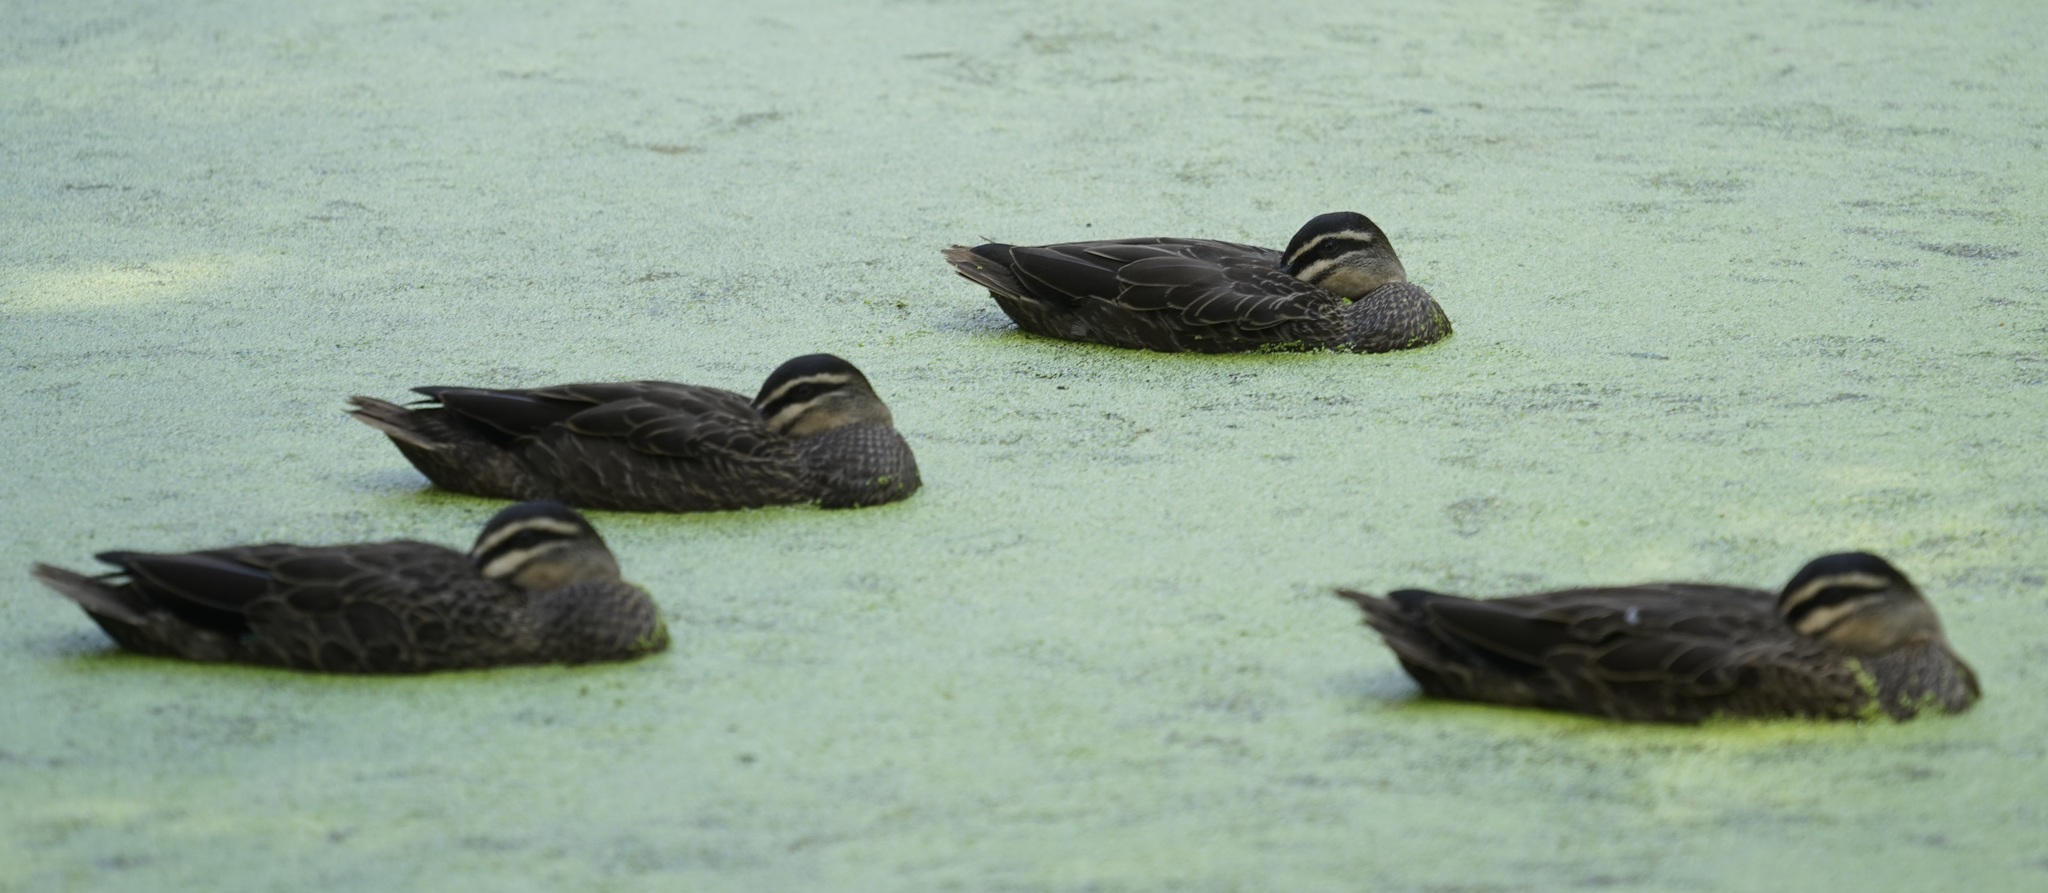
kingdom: Animalia
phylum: Chordata
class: Aves
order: Anseriformes
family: Anatidae
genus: Anas
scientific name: Anas superciliosa
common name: Pacific black duck
